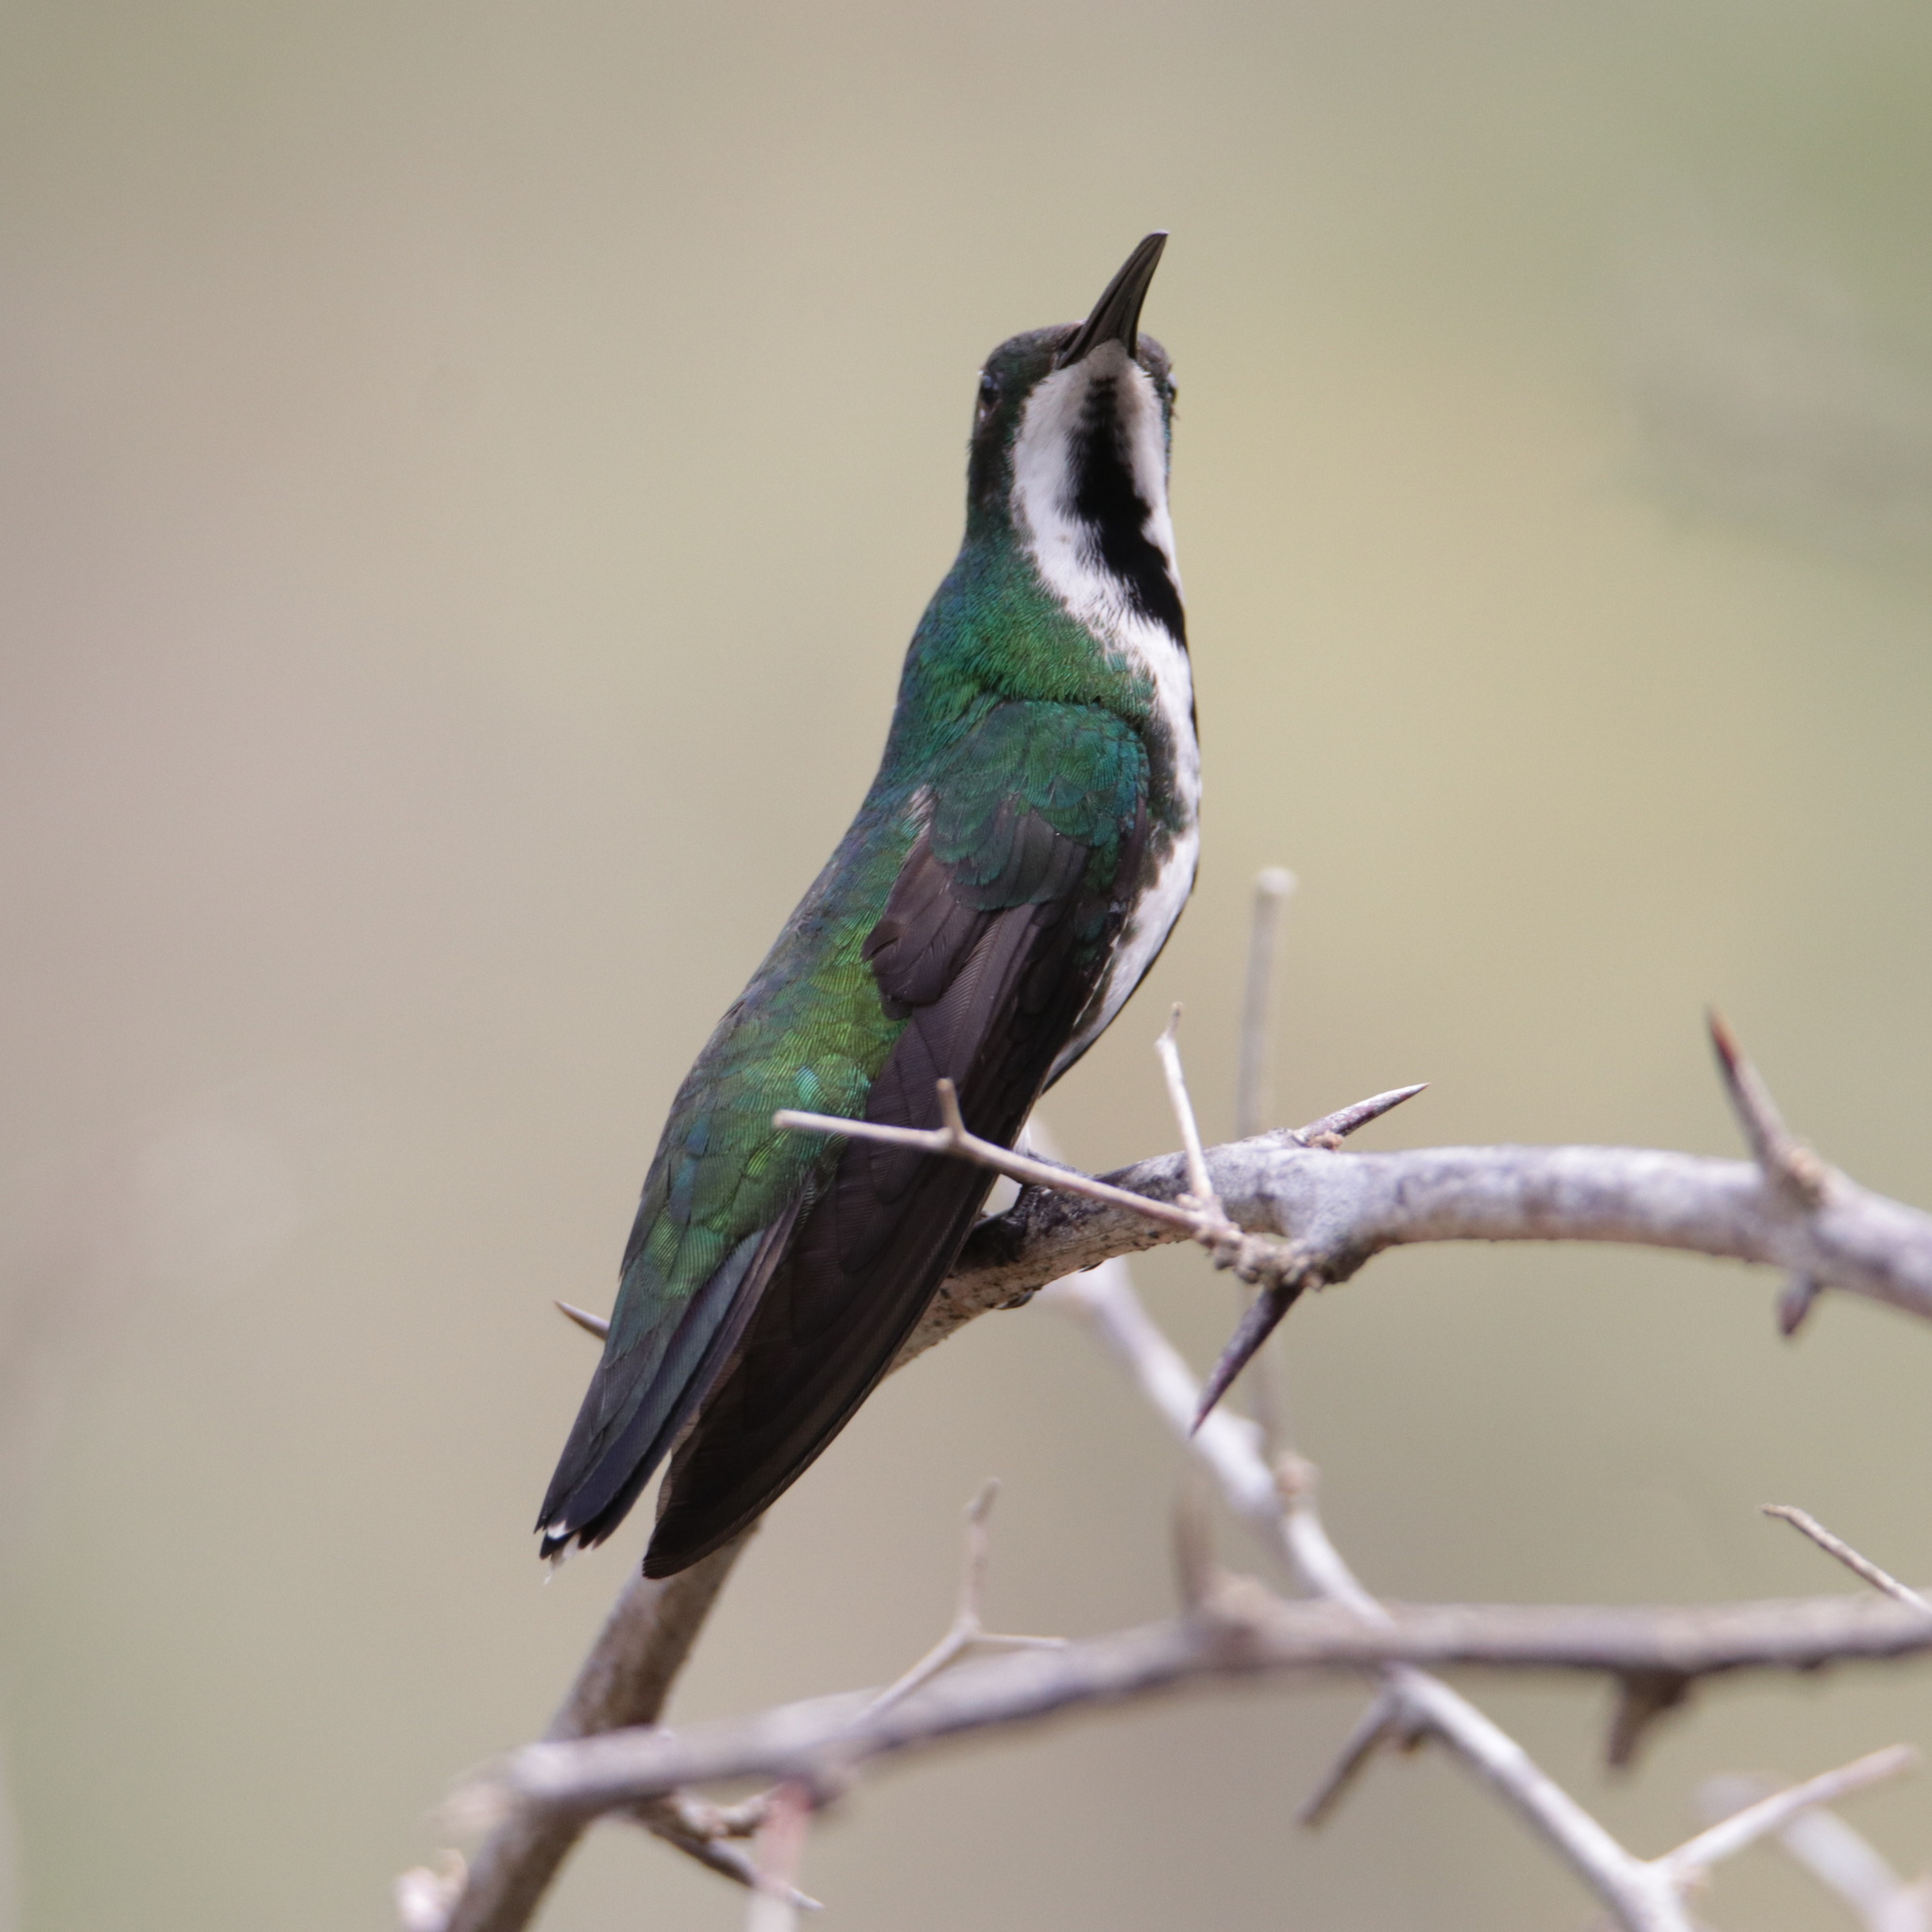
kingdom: Animalia
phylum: Chordata
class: Aves
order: Apodiformes
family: Trochilidae
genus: Anthracothorax
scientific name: Anthracothorax nigricollis
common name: Black-throated mango
